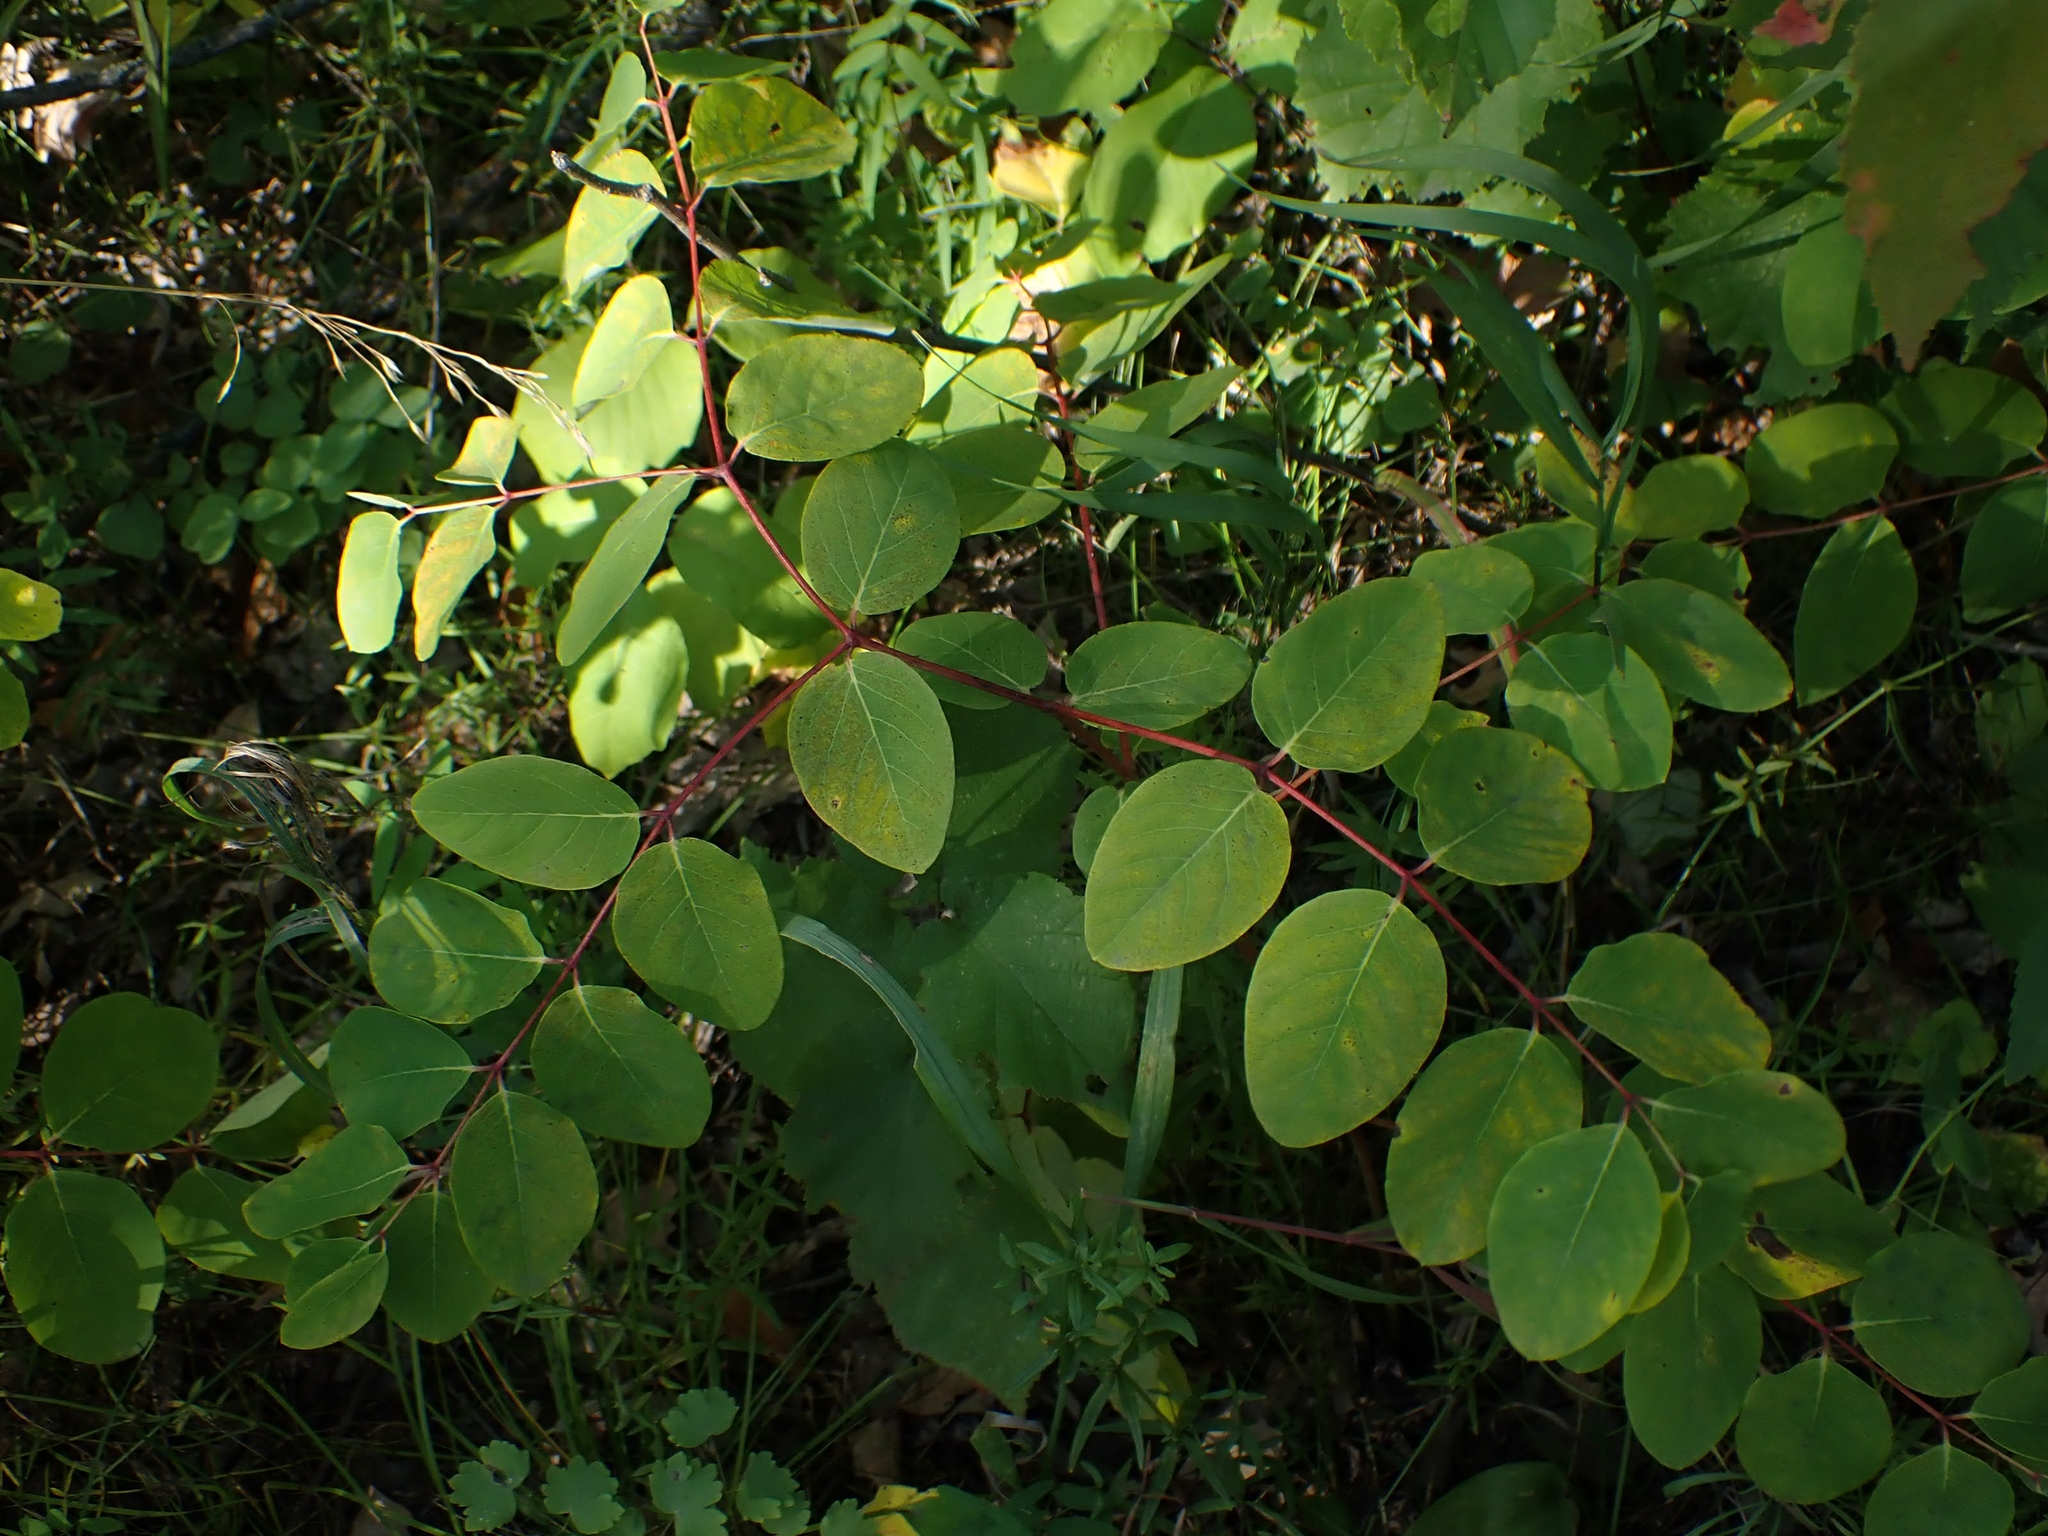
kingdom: Plantae
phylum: Tracheophyta
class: Magnoliopsida
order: Gentianales
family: Apocynaceae
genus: Apocynum
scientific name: Apocynum androsaemifolium
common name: Spreading dogbane
